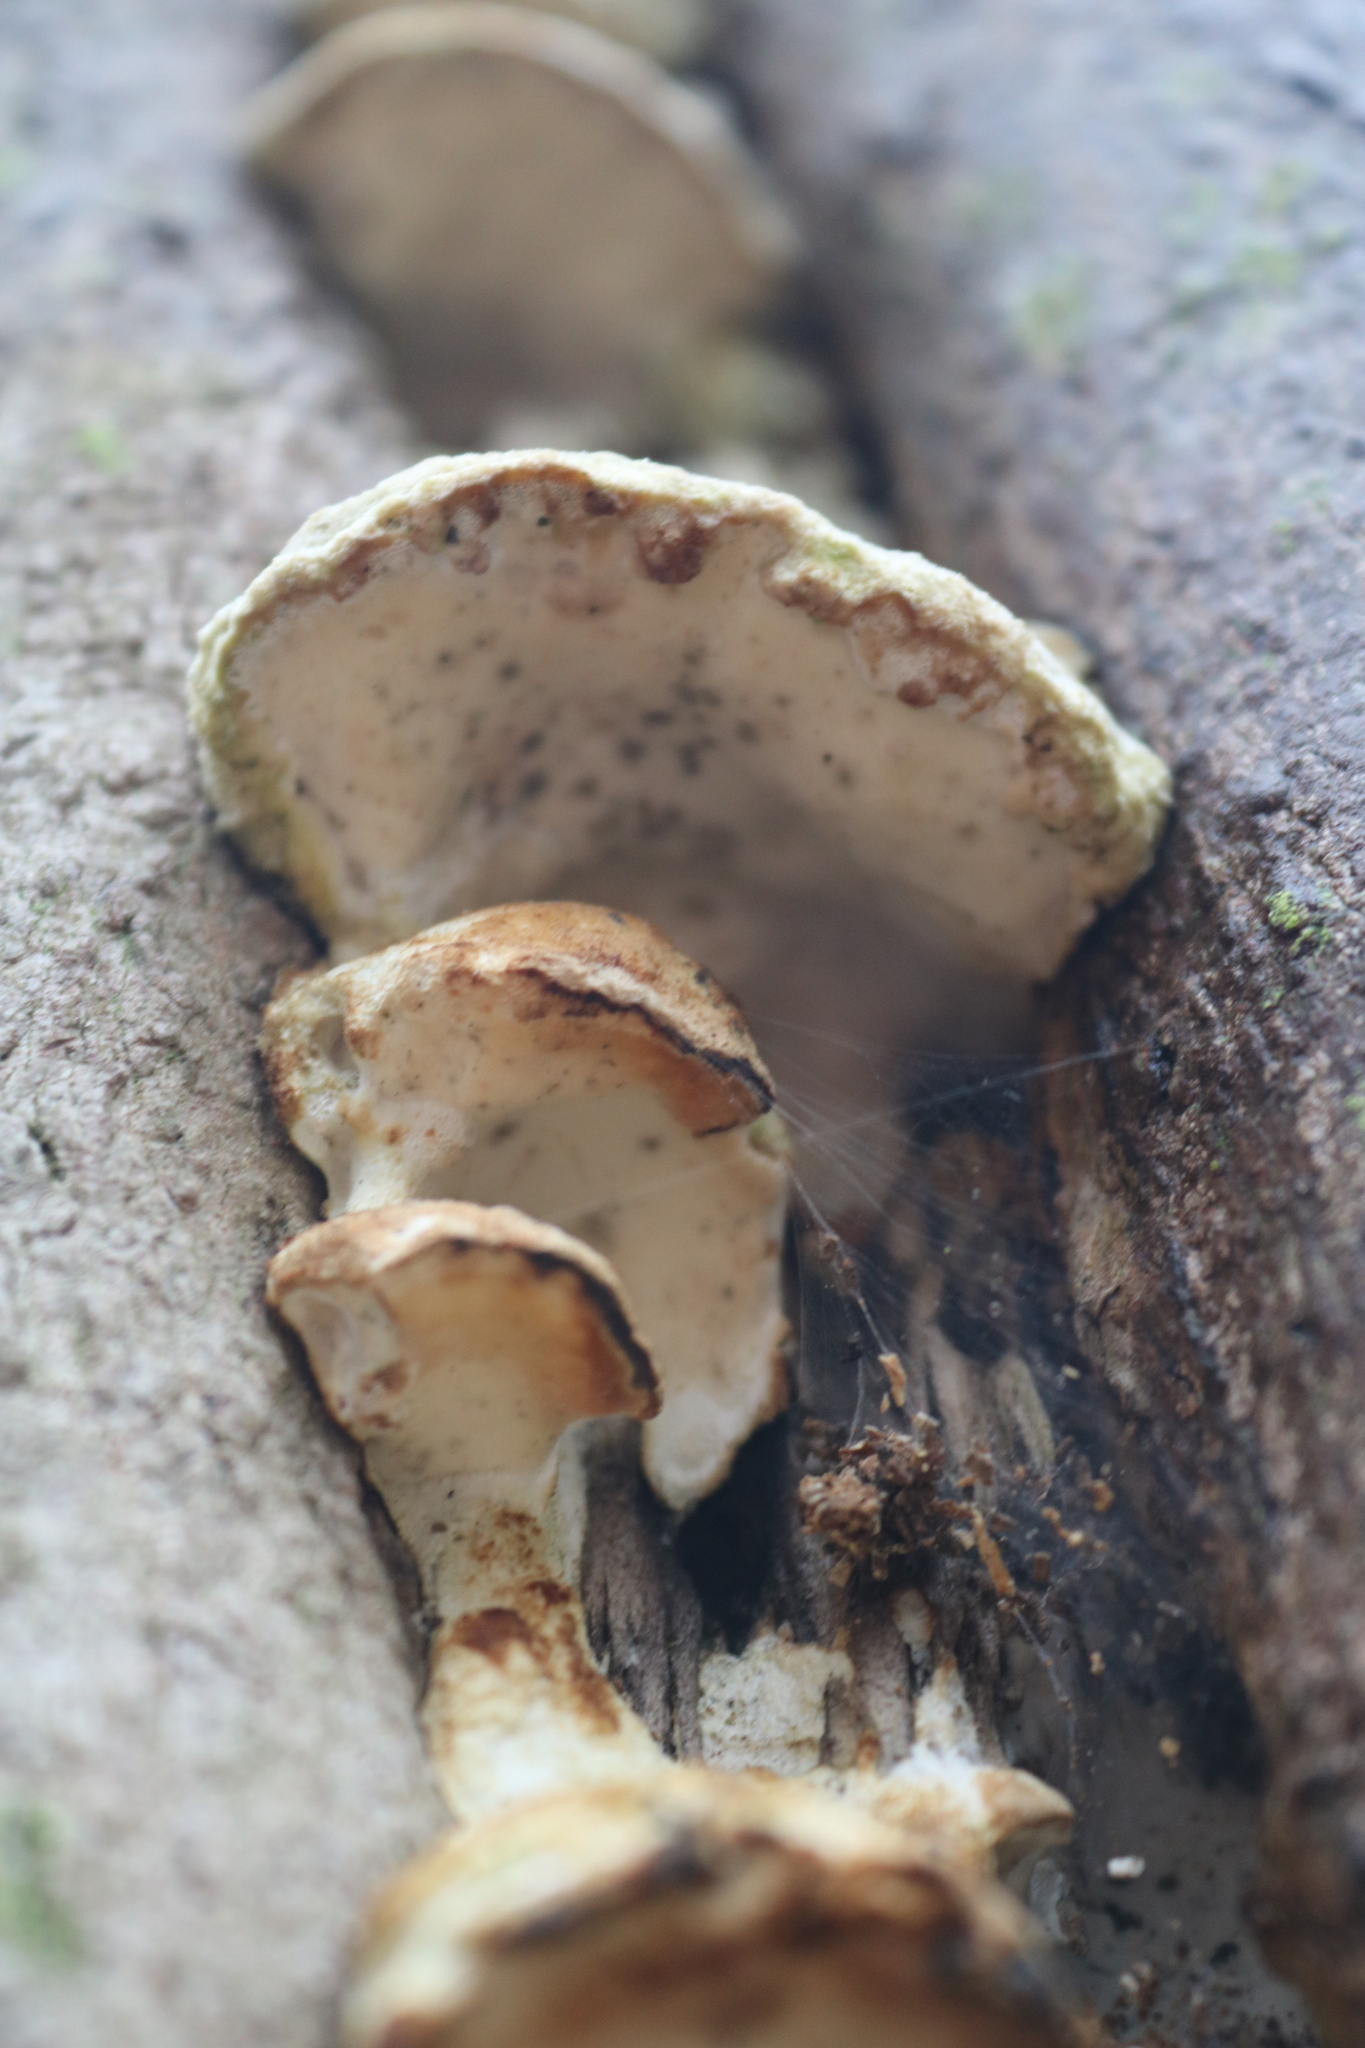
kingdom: Fungi
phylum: Basidiomycota
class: Agaricomycetes
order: Hymenochaetales
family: Oxyporaceae
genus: Oxyporus
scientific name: Oxyporus populinus
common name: Poplar bracket
